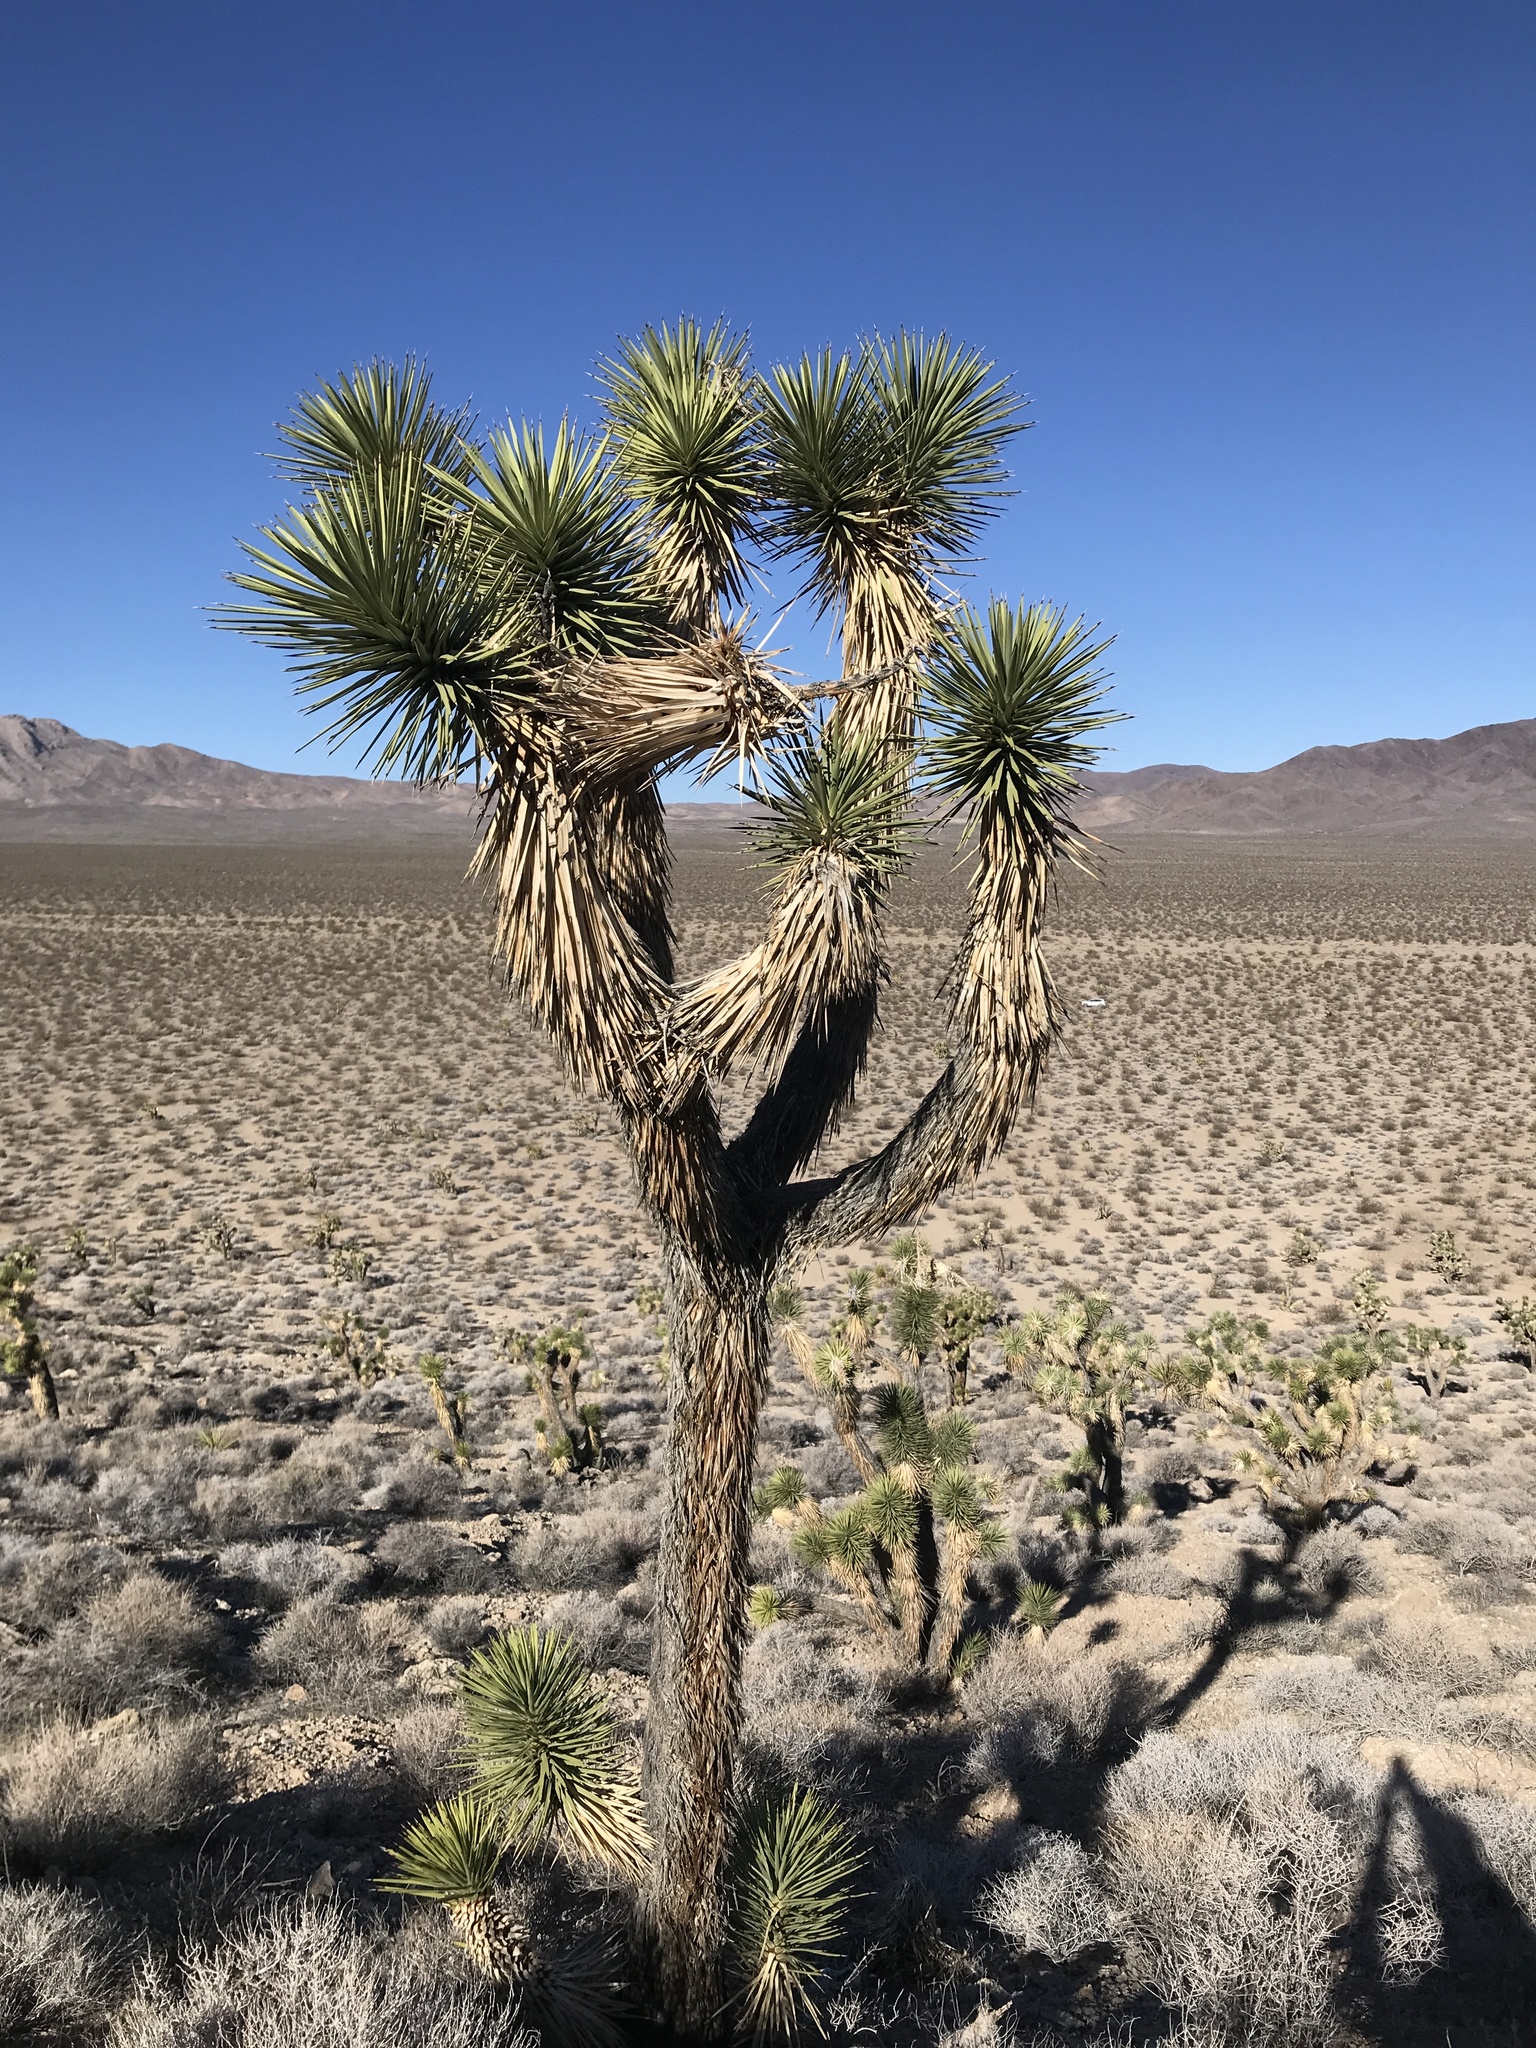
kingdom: Plantae
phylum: Tracheophyta
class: Liliopsida
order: Asparagales
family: Asparagaceae
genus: Yucca
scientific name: Yucca brevifolia
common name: Joshua tree
